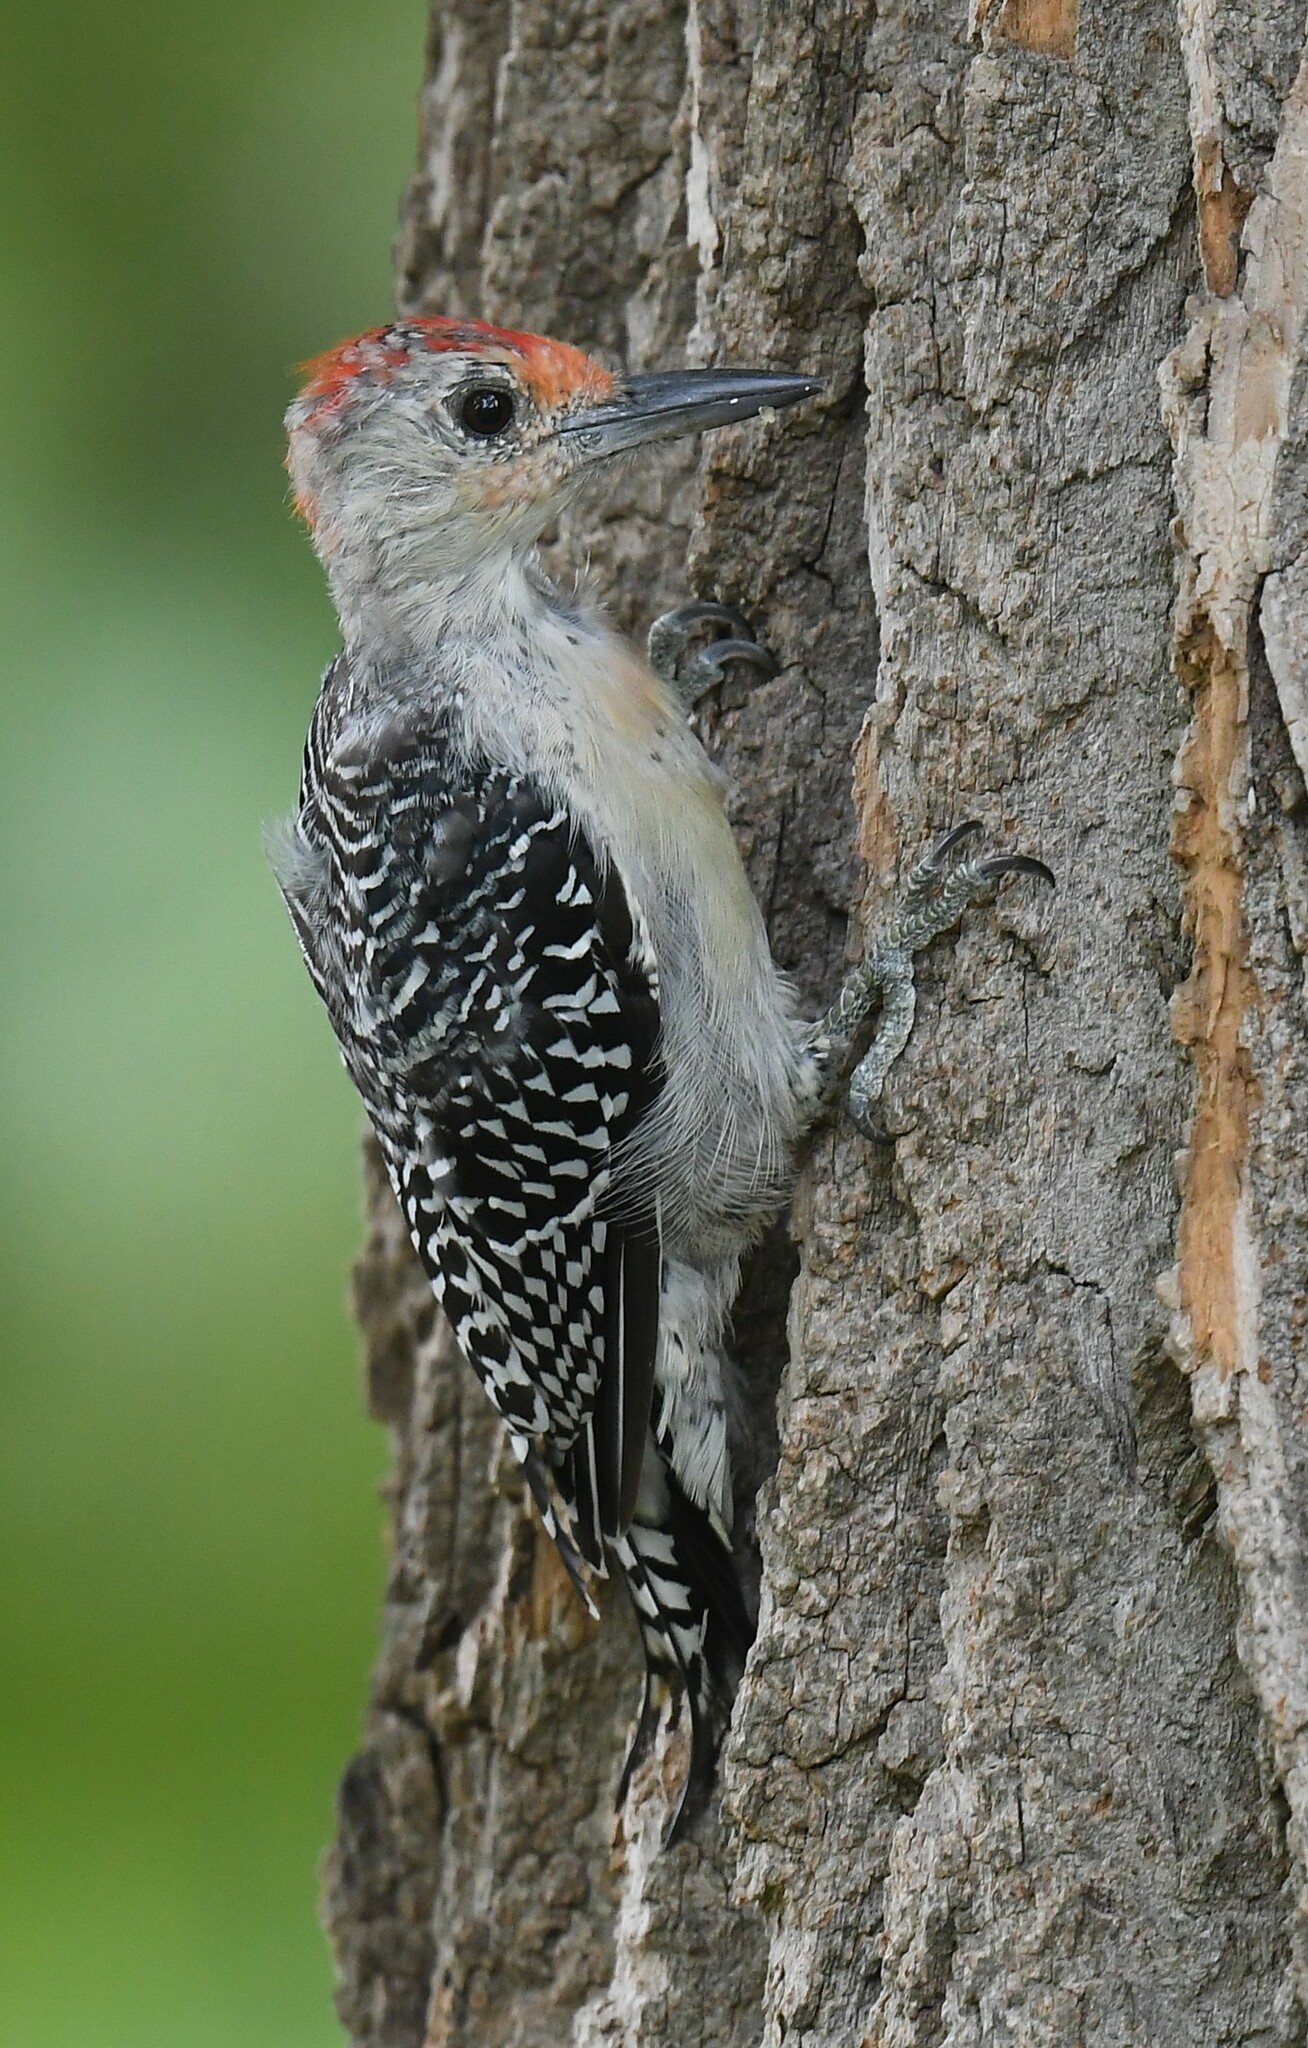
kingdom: Animalia
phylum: Chordata
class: Aves
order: Piciformes
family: Picidae
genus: Melanerpes
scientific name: Melanerpes carolinus
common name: Red-bellied woodpecker
